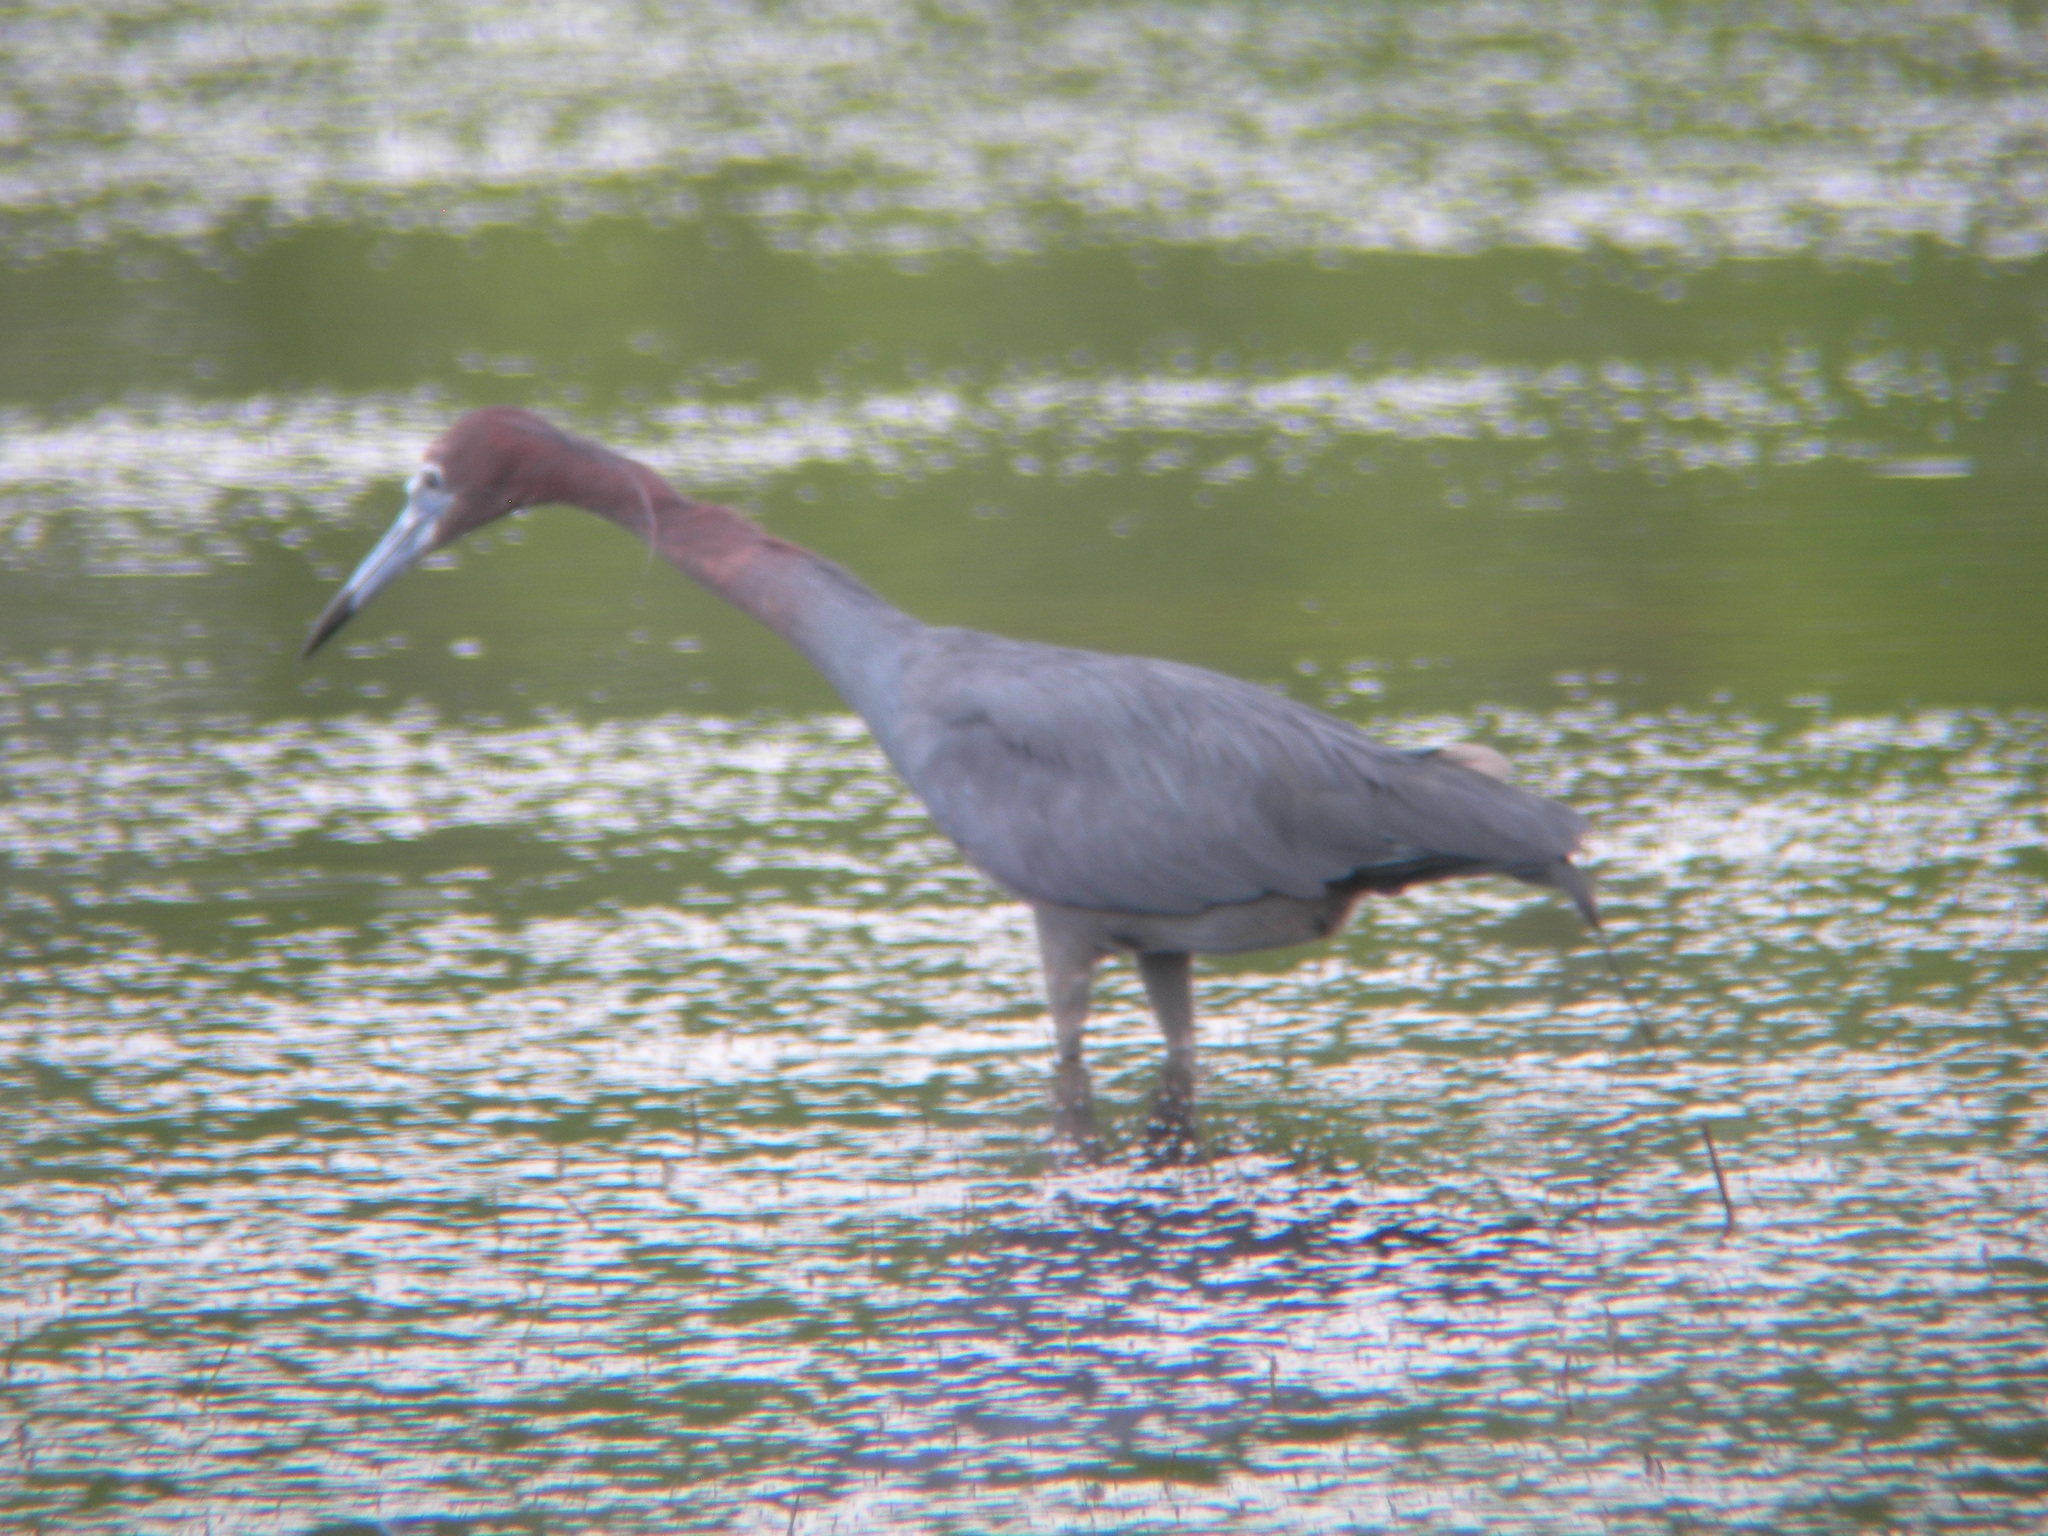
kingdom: Animalia
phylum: Chordata
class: Aves
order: Pelecaniformes
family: Ardeidae
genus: Egretta
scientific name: Egretta caerulea
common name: Little blue heron
